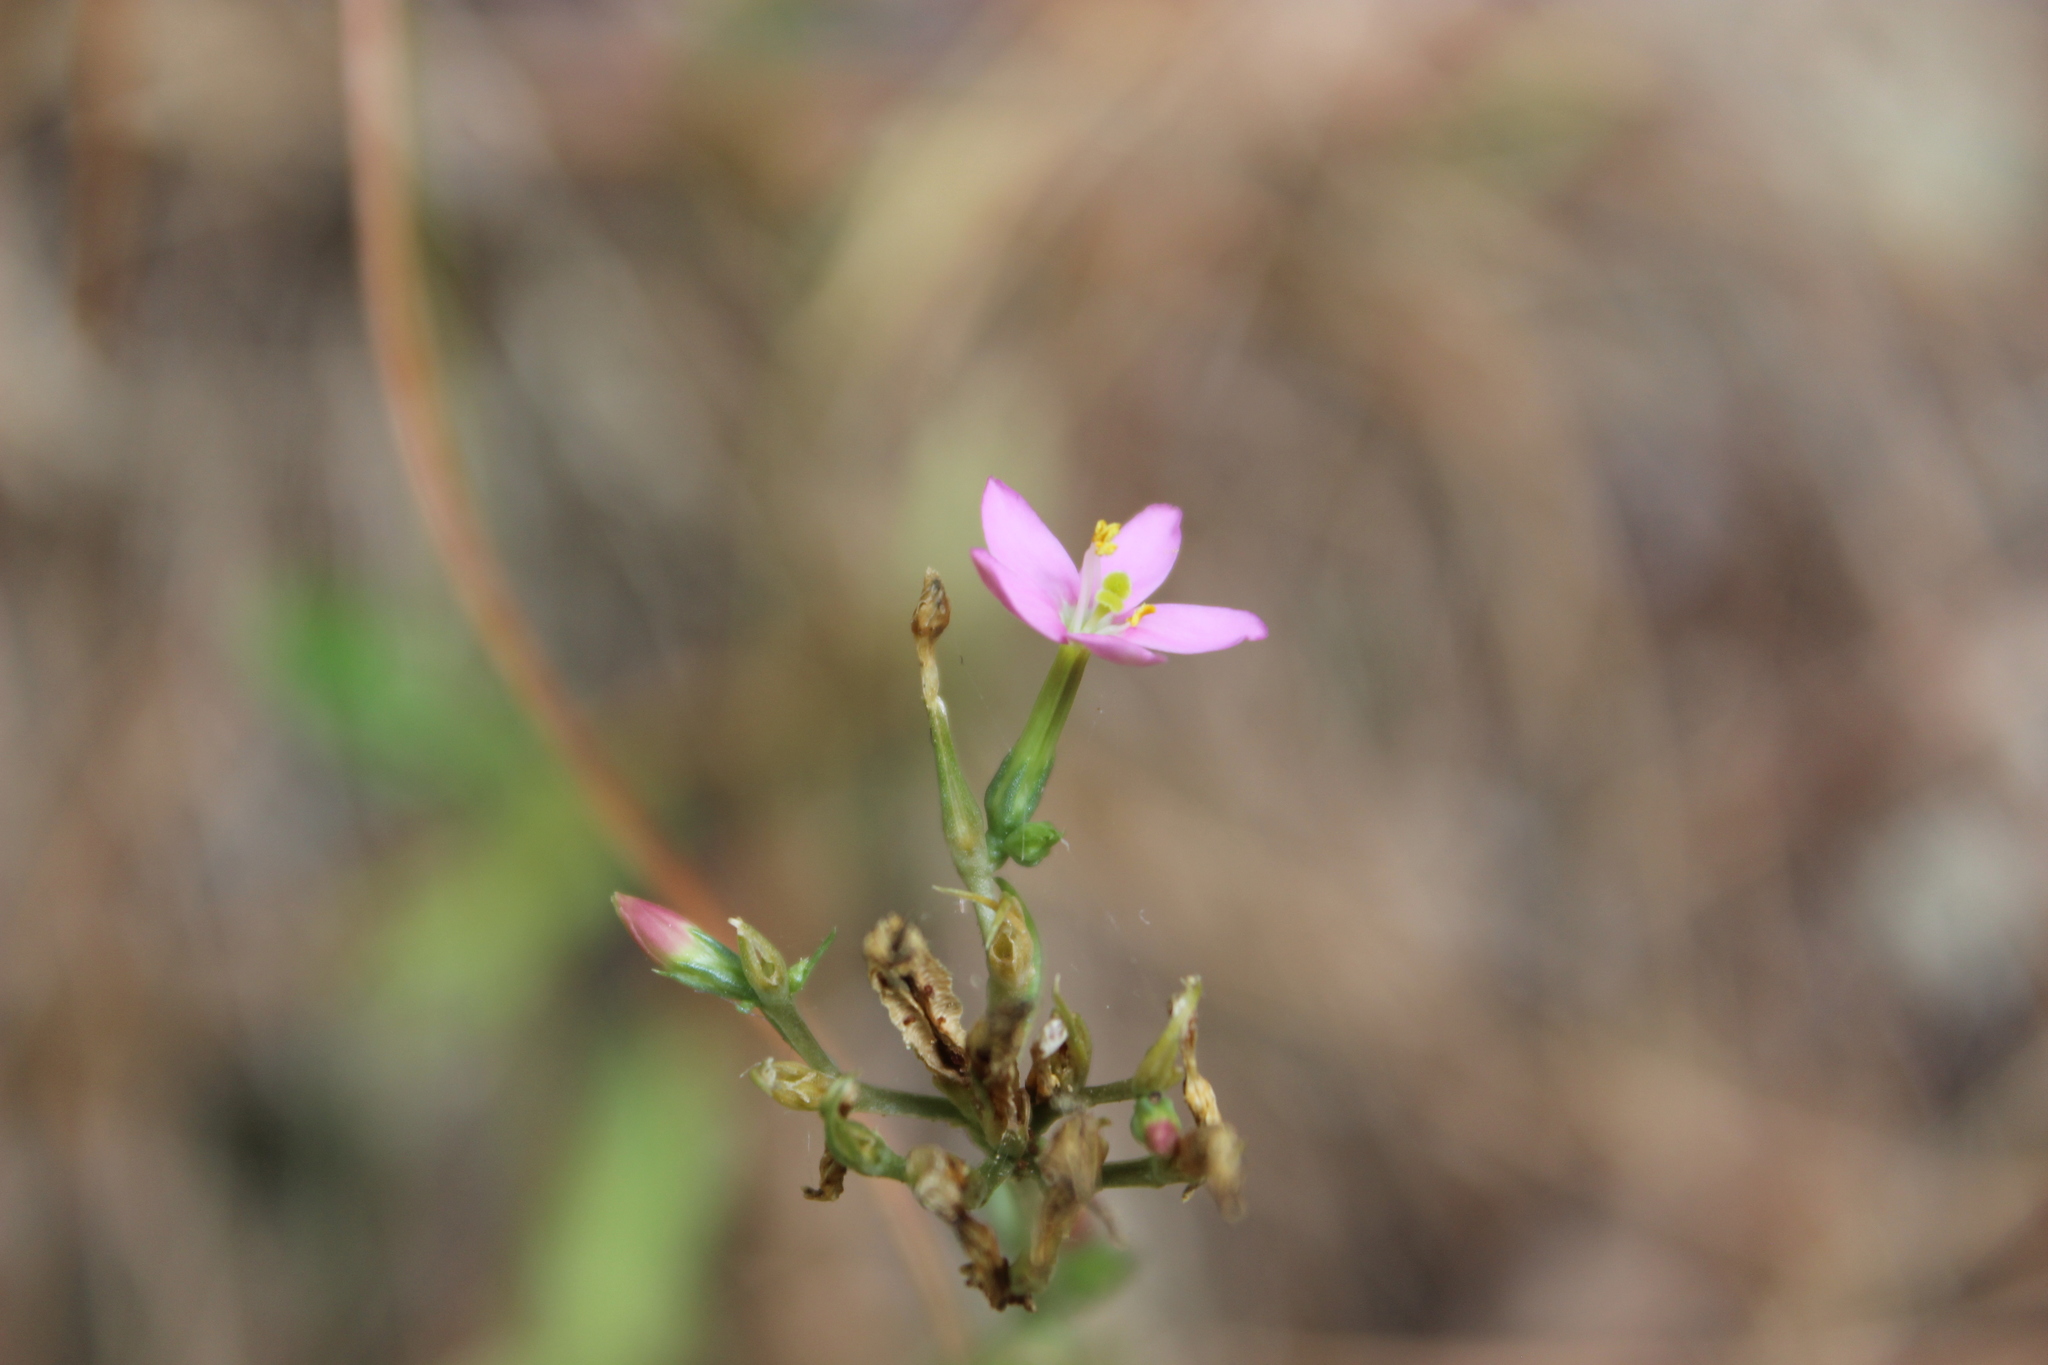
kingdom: Plantae
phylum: Tracheophyta
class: Magnoliopsida
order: Gentianales
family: Gentianaceae
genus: Centaurium
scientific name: Centaurium erythraea
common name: Common centaury
